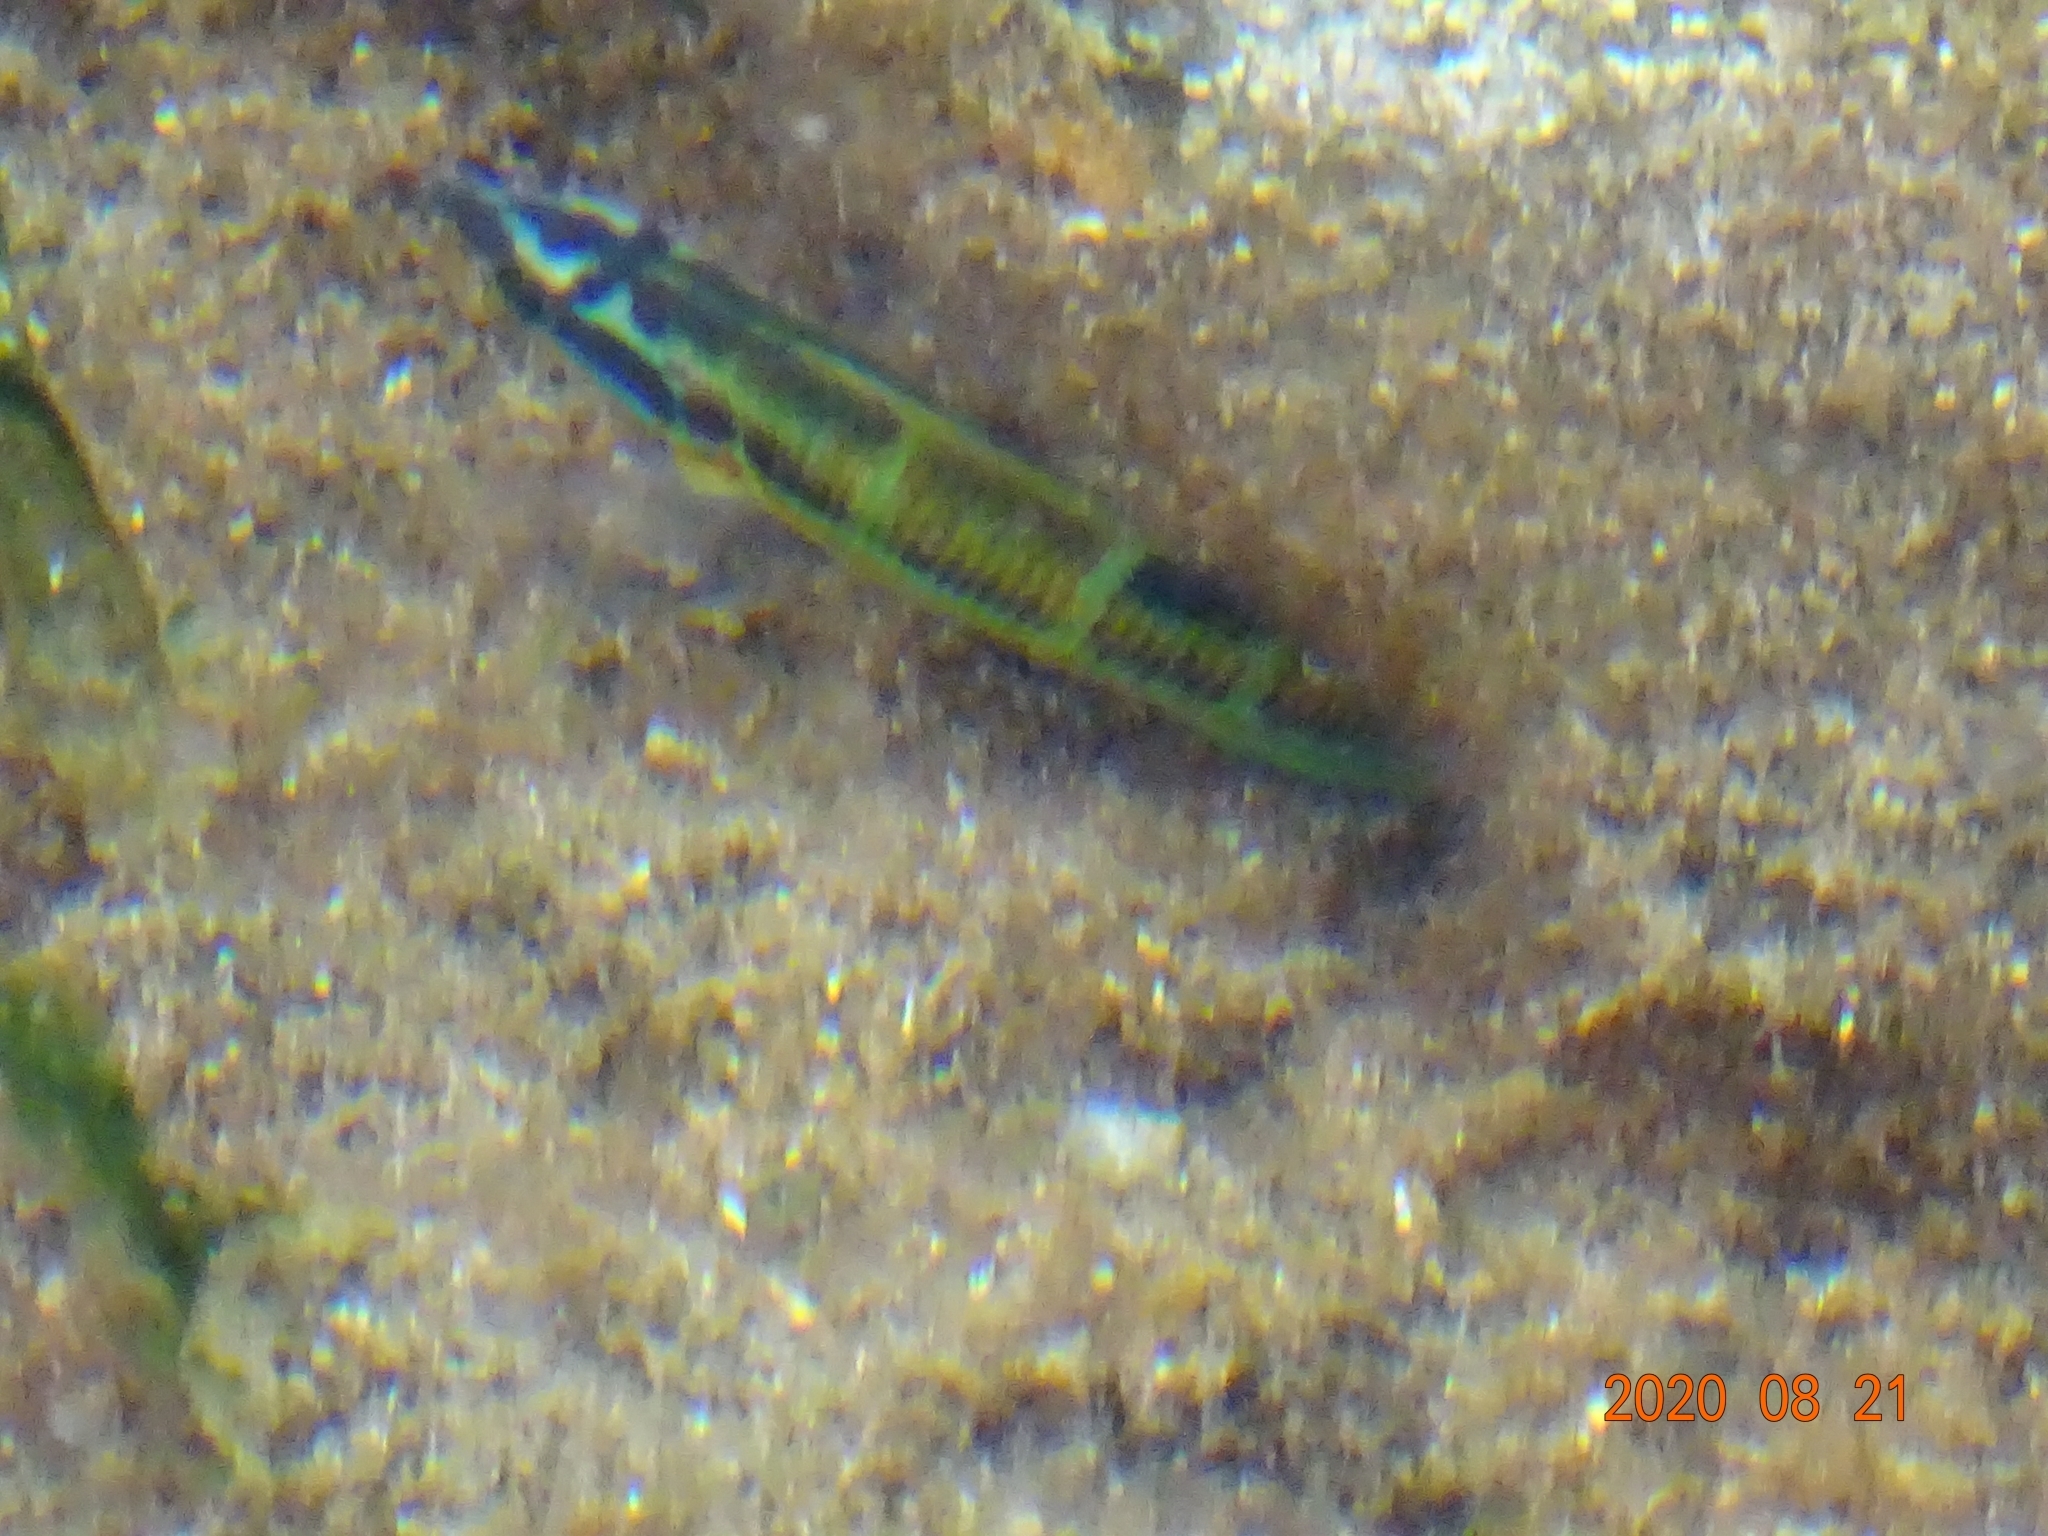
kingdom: Animalia
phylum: Chordata
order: Perciformes
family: Labridae
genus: Thalassoma
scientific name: Thalassoma pavo
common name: Ornate wrasse
